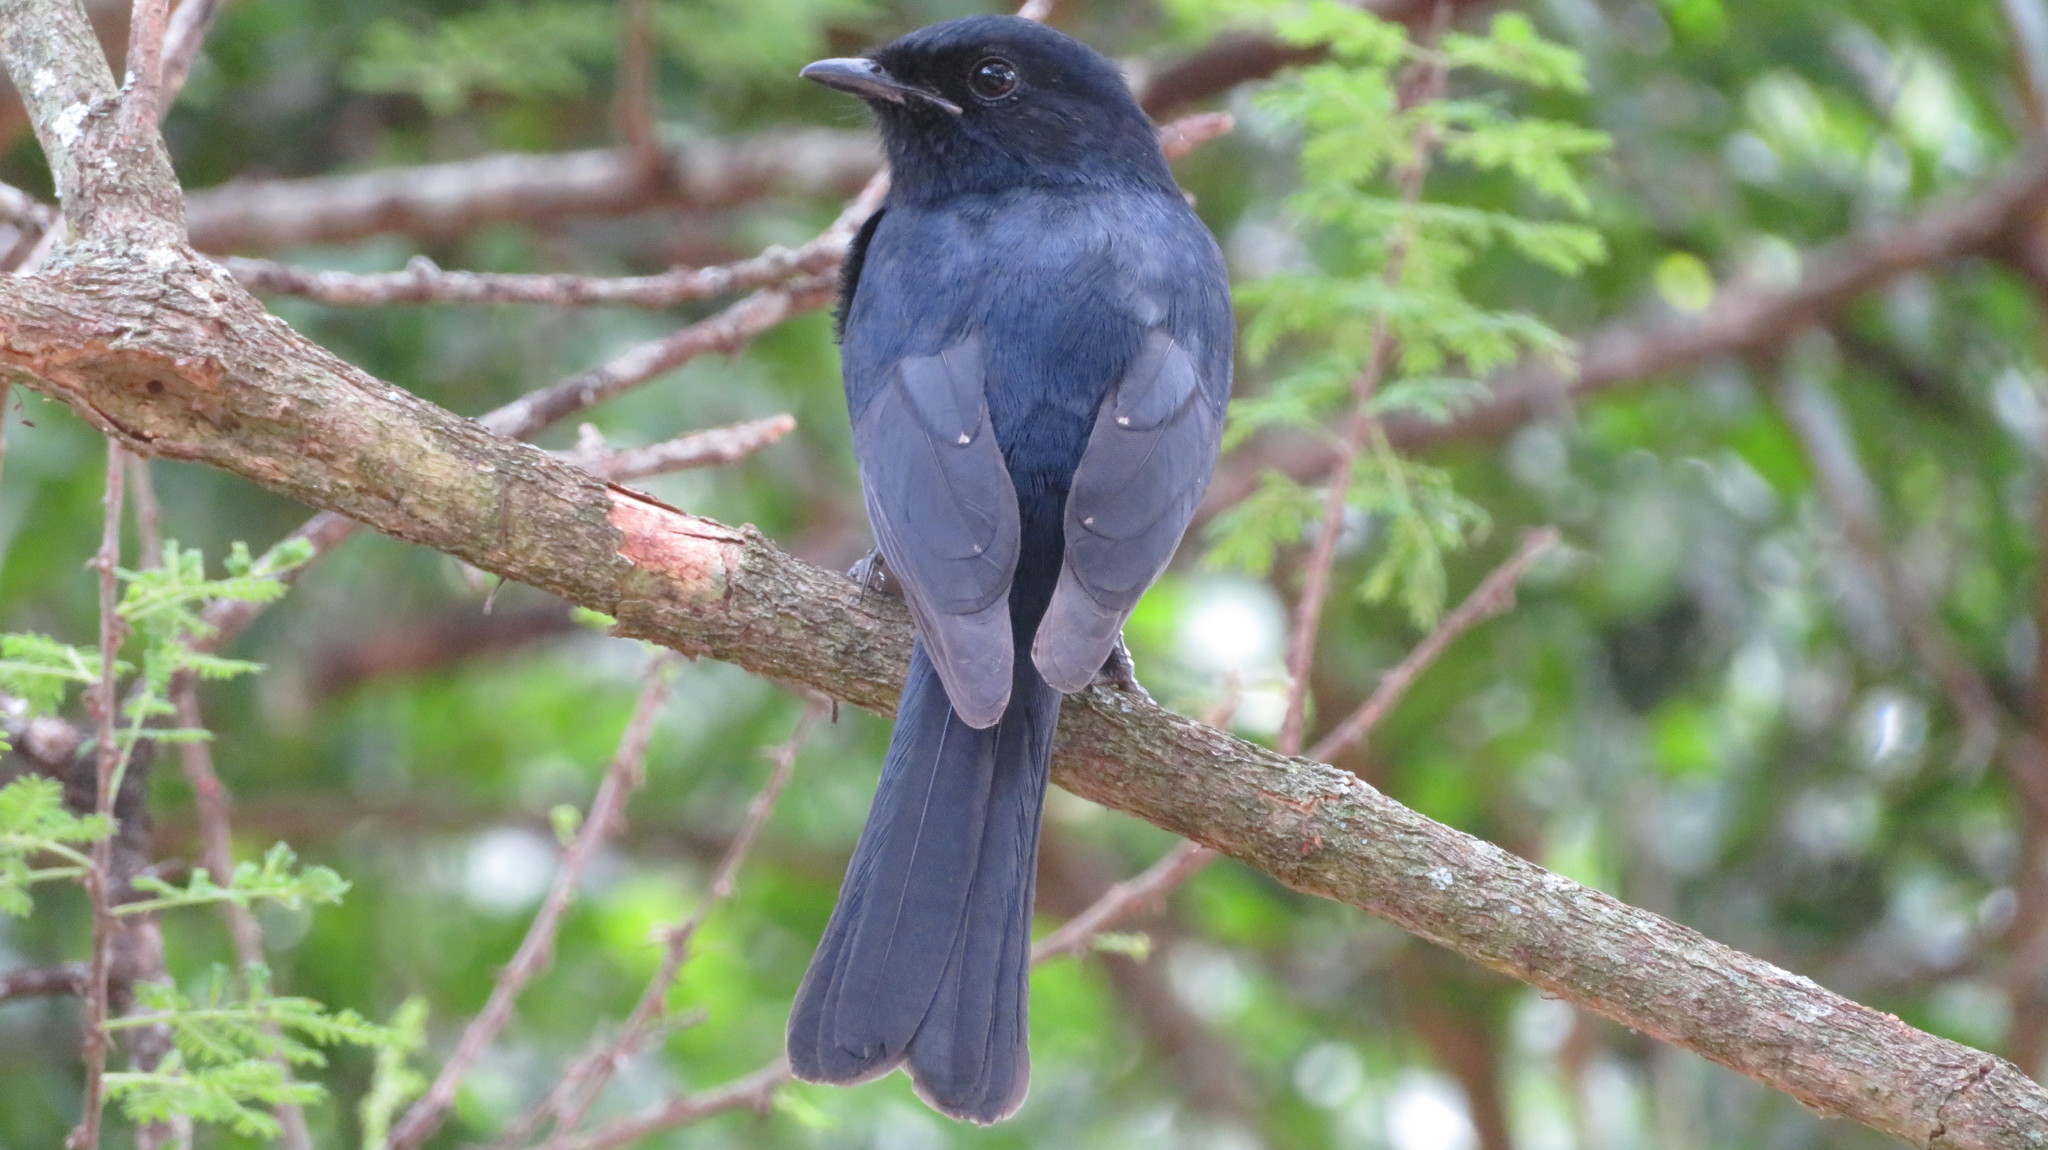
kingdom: Animalia
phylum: Chordata
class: Aves
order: Passeriformes
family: Muscicapidae
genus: Melaenornis
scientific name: Melaenornis pammelaina
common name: Southern black flycatcher
